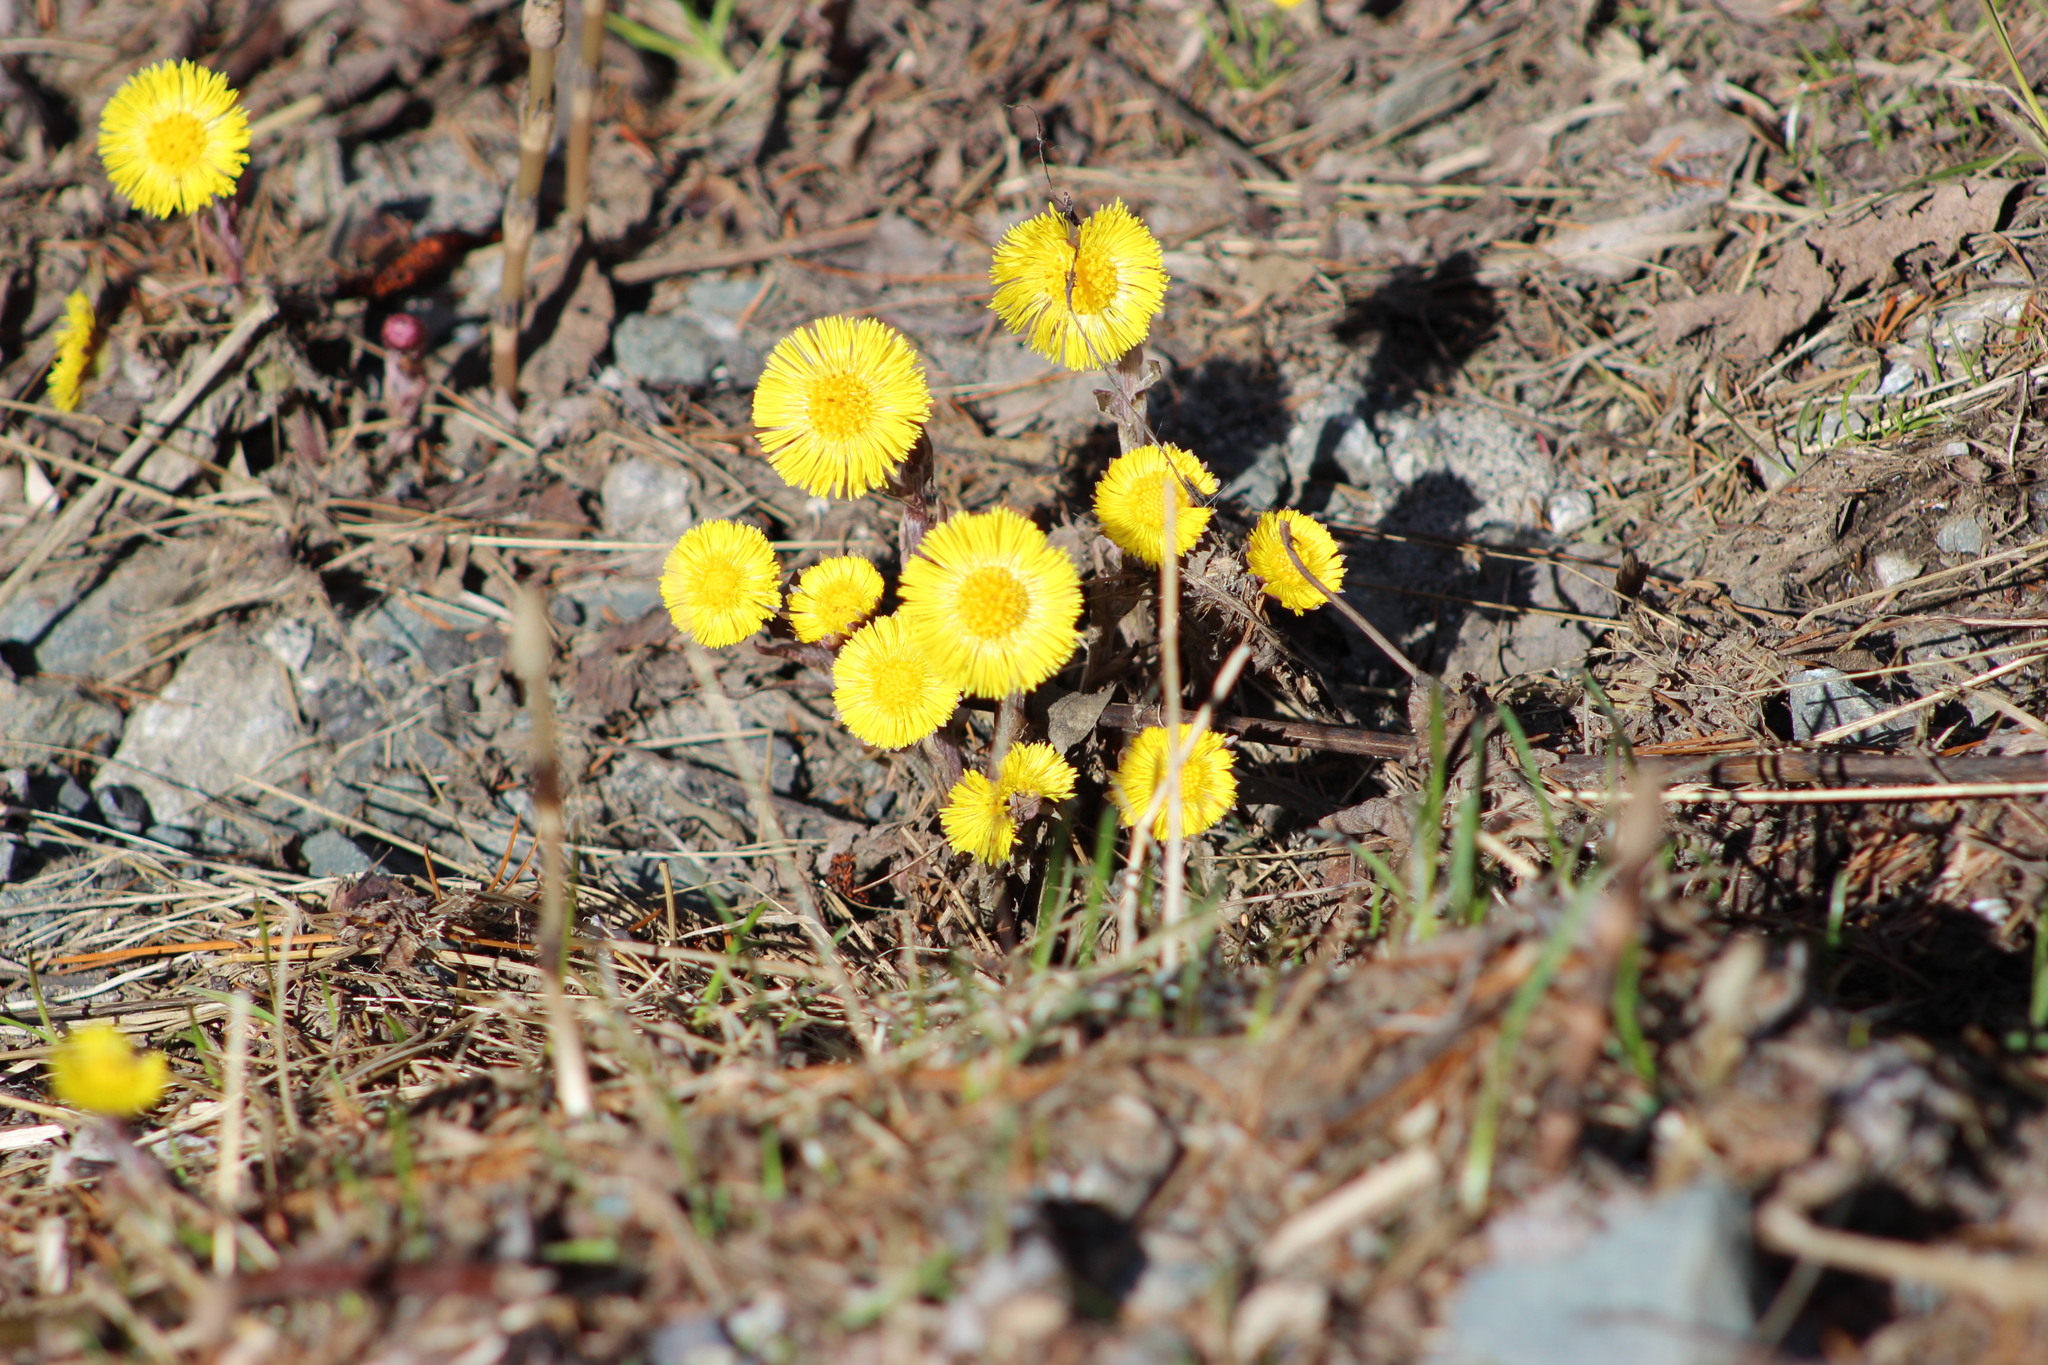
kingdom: Plantae
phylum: Tracheophyta
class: Magnoliopsida
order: Asterales
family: Asteraceae
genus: Tussilago
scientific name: Tussilago farfara
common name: Coltsfoot
